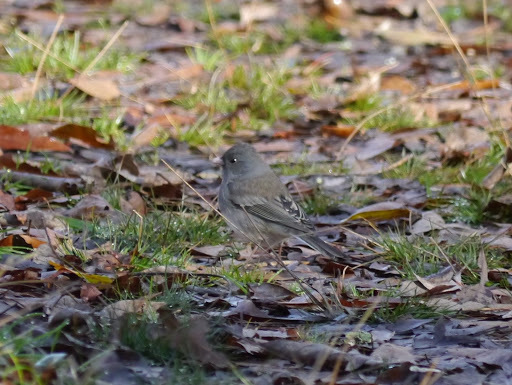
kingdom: Animalia
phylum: Chordata
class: Aves
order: Passeriformes
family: Passerellidae
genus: Junco
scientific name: Junco hyemalis
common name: Dark-eyed junco
